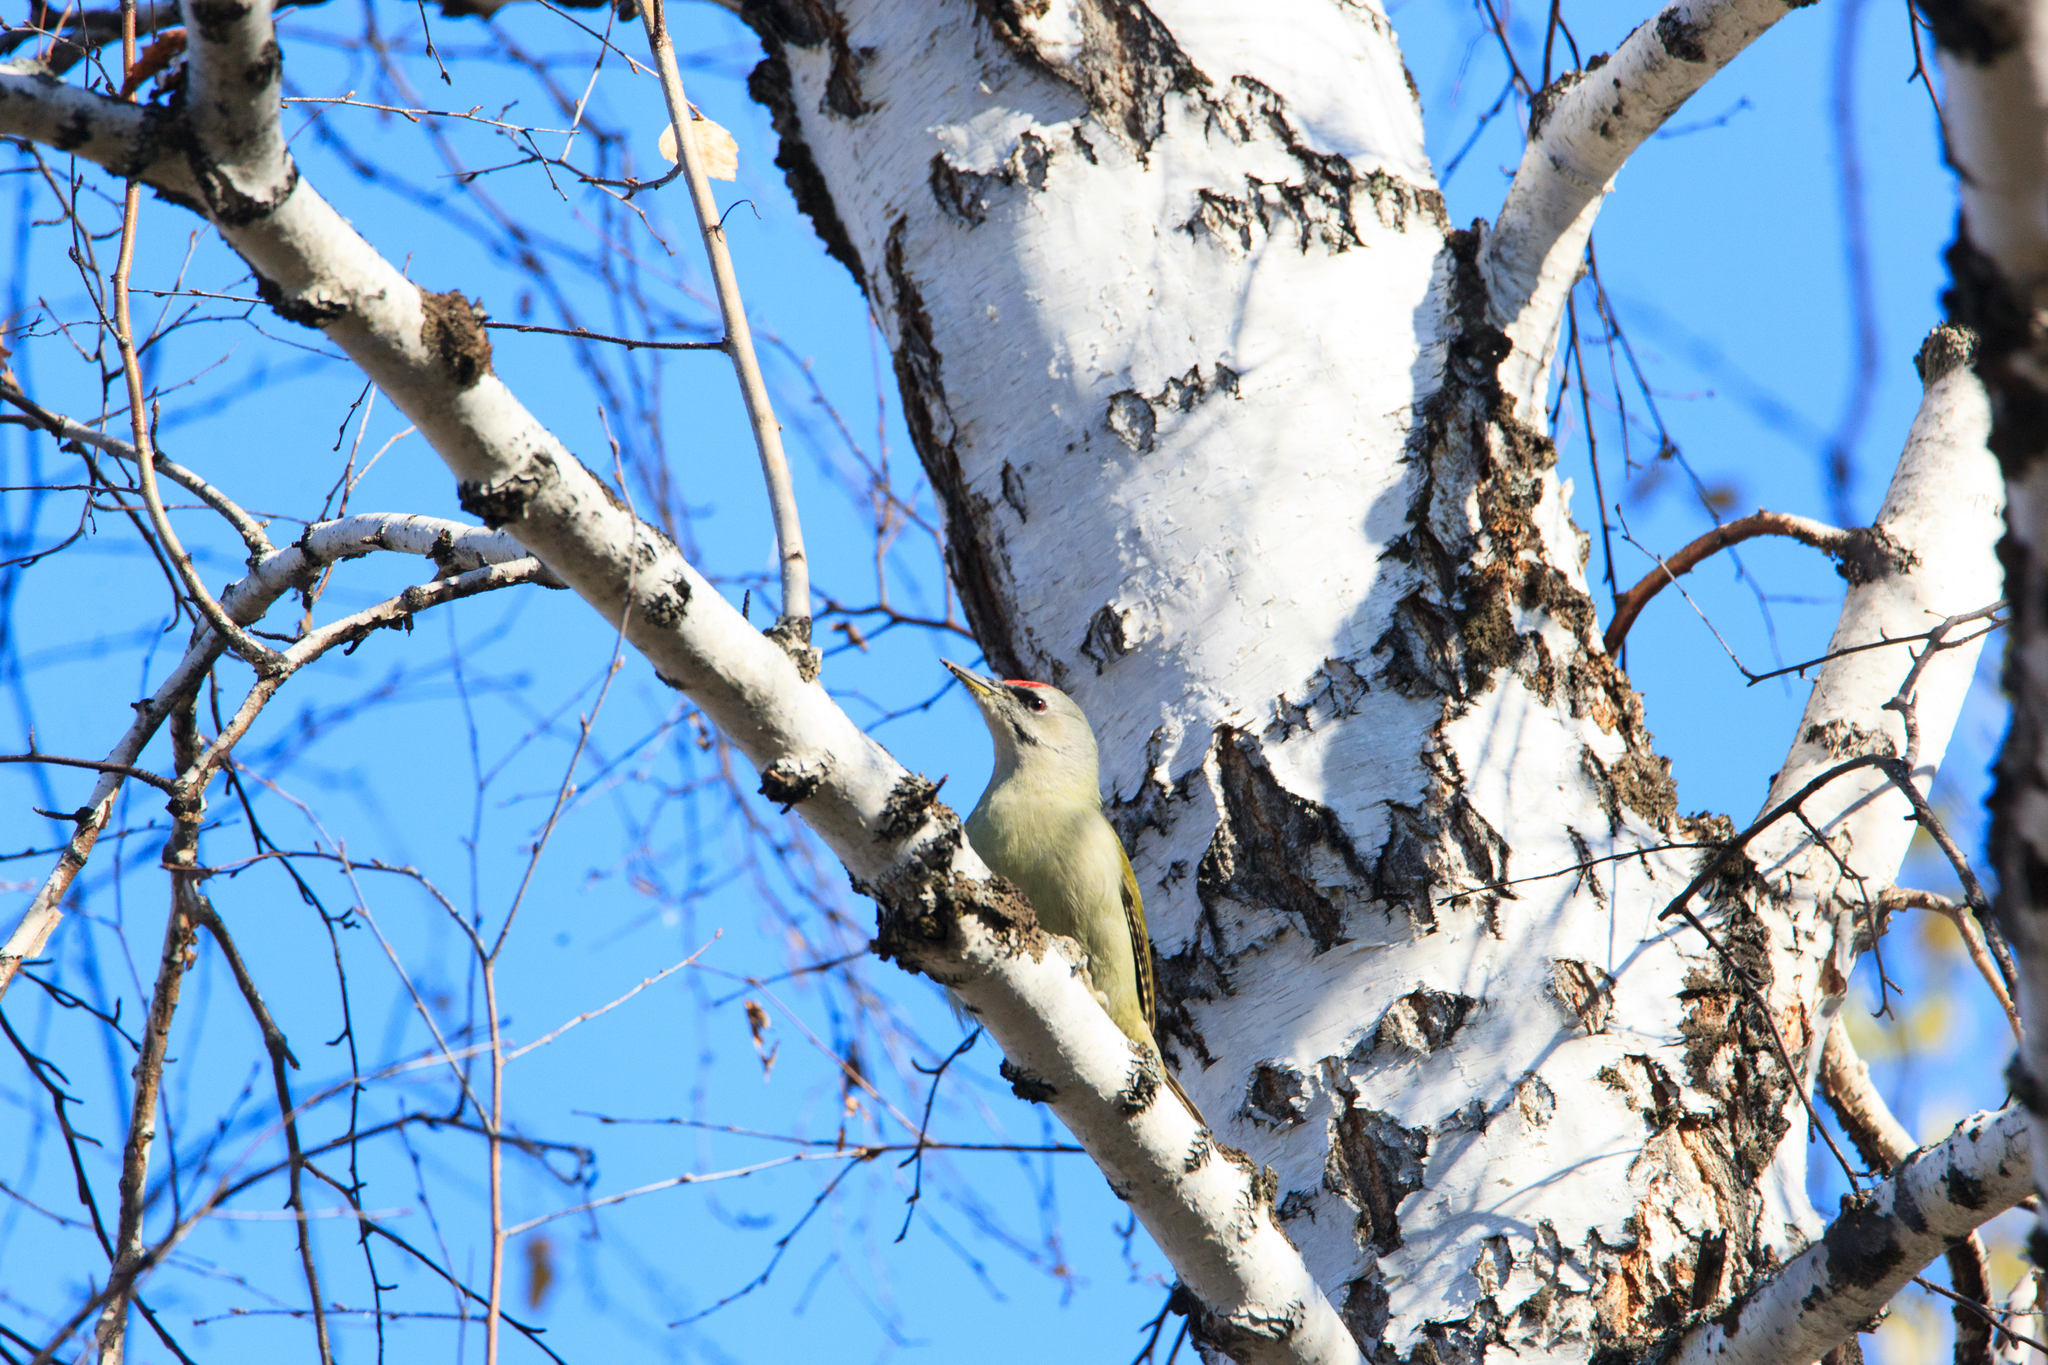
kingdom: Animalia
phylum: Chordata
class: Aves
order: Piciformes
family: Picidae
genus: Picus
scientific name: Picus canus
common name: Grey-headed woodpecker
